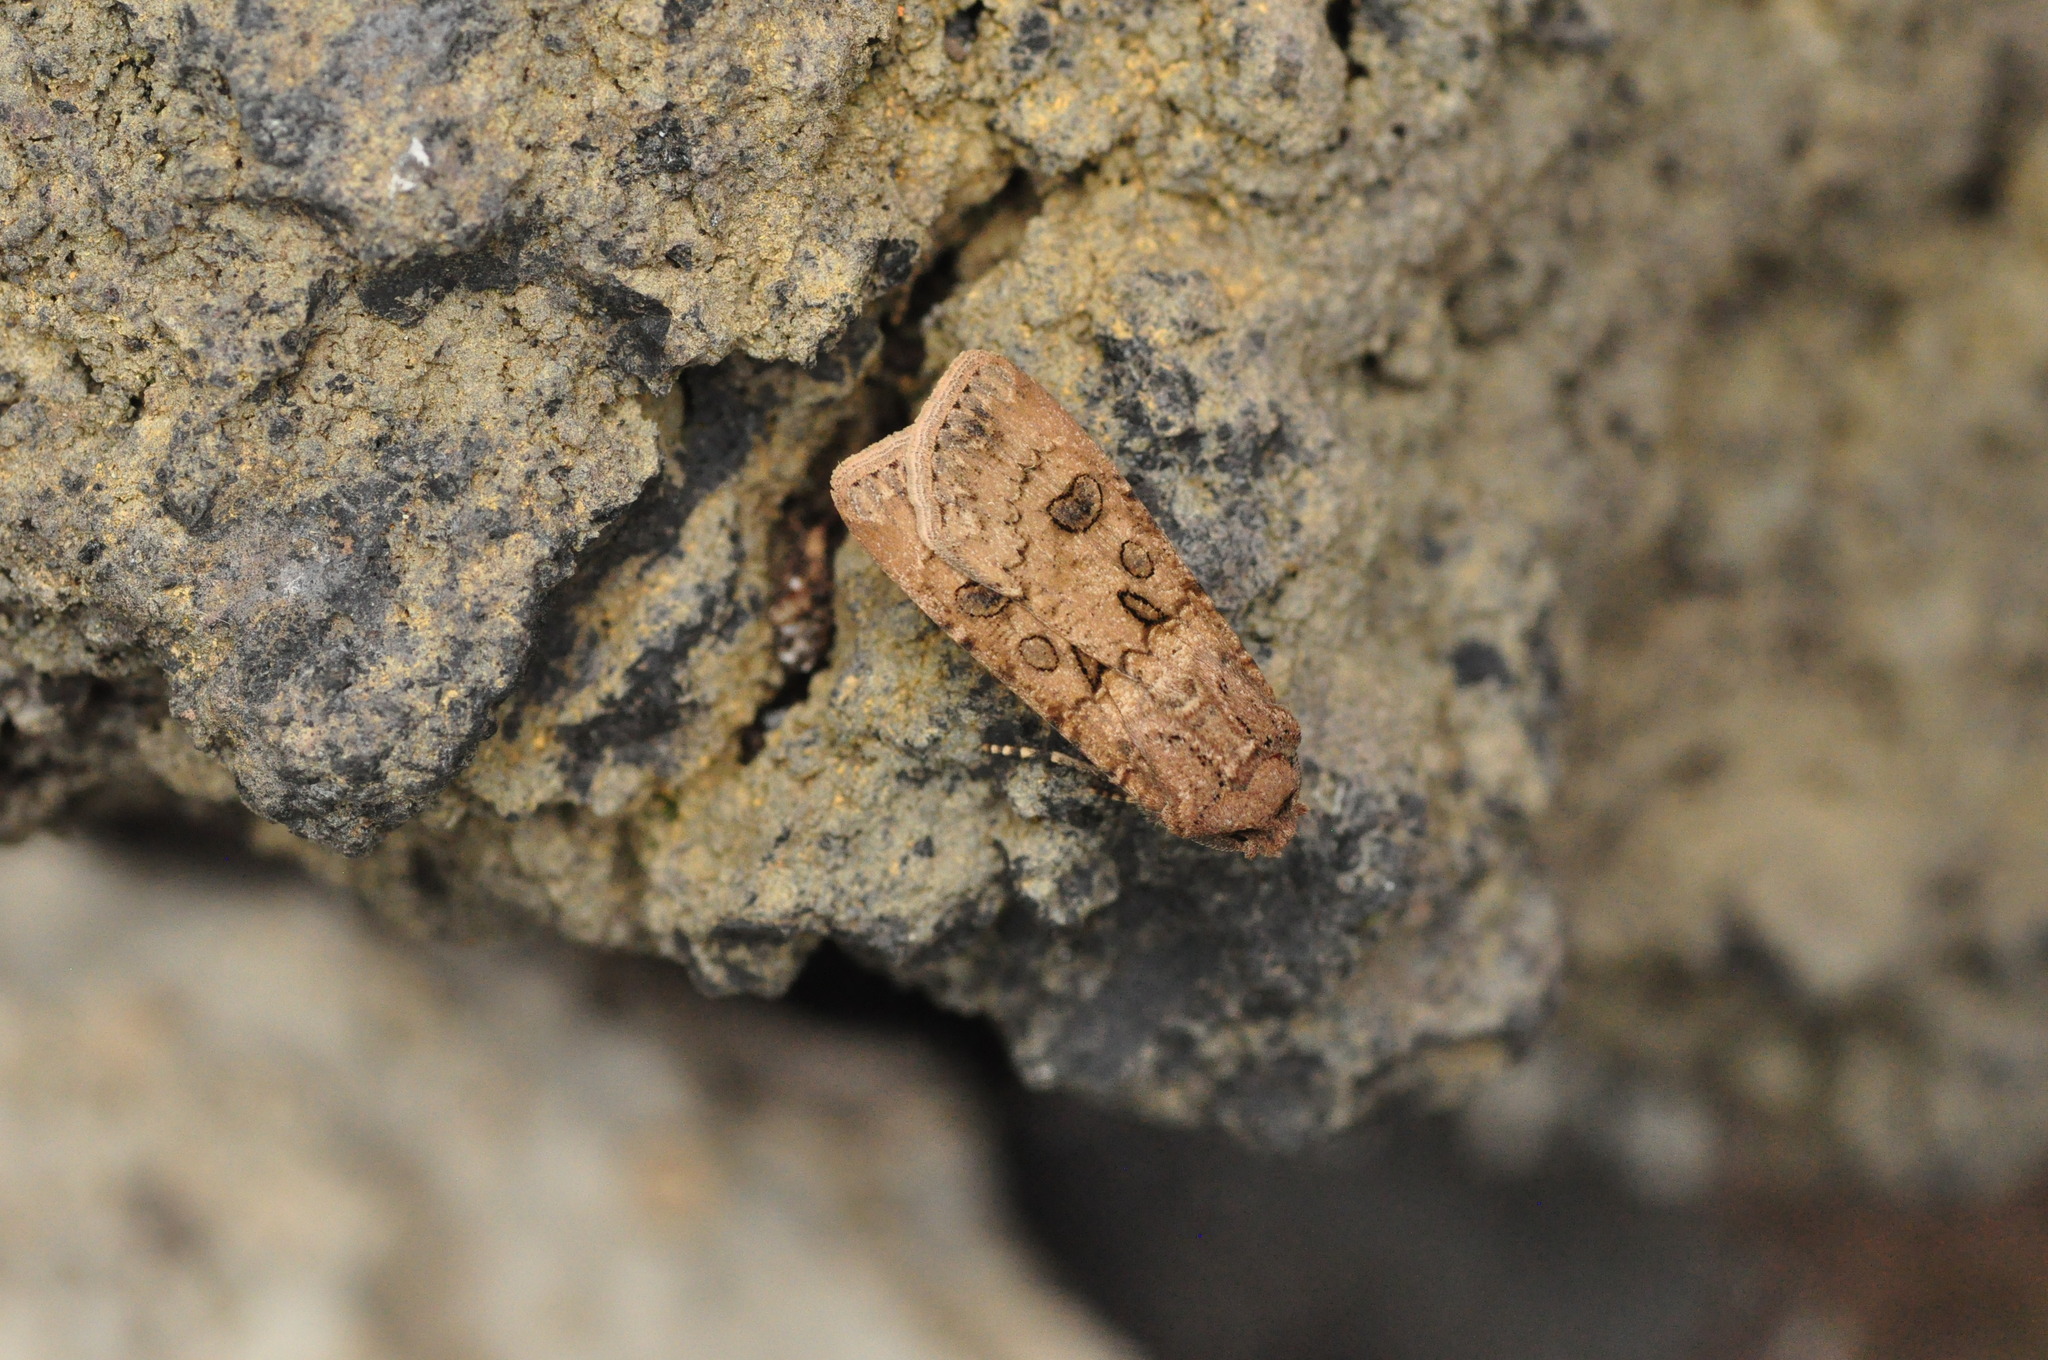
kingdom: Animalia
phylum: Arthropoda
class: Insecta
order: Lepidoptera
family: Noctuidae
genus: Agrotis
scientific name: Agrotis segetum
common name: Turnip moth
